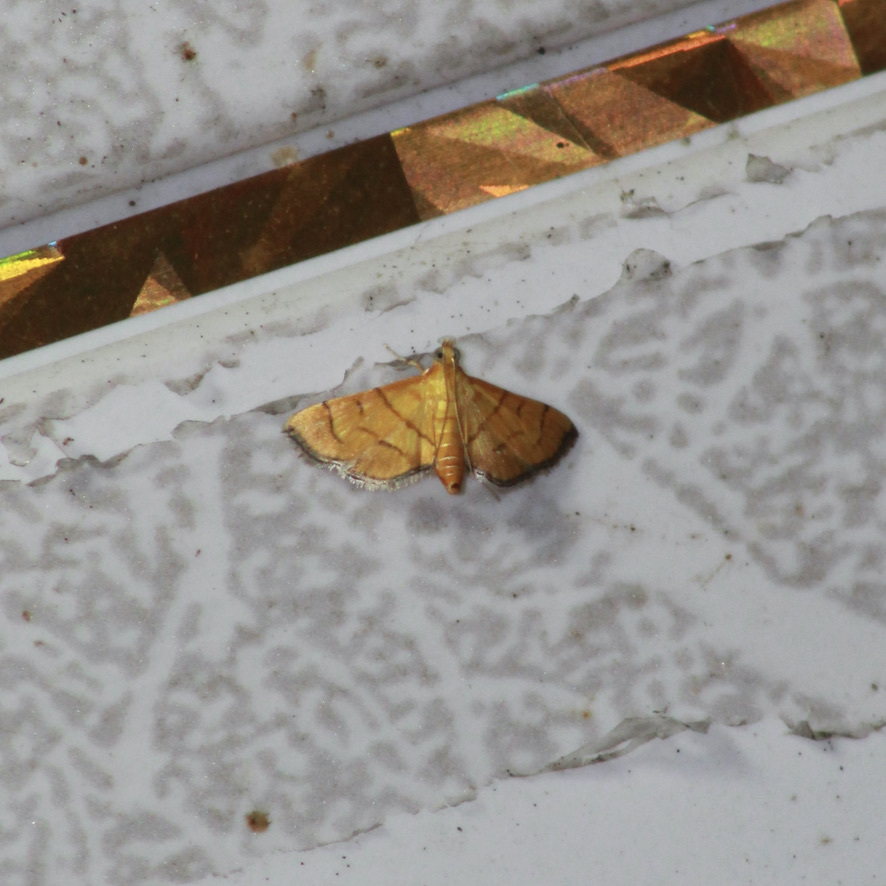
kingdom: Animalia
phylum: Arthropoda
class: Insecta
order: Lepidoptera
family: Crambidae
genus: Salbia
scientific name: Salbia haemorrhoidalis
